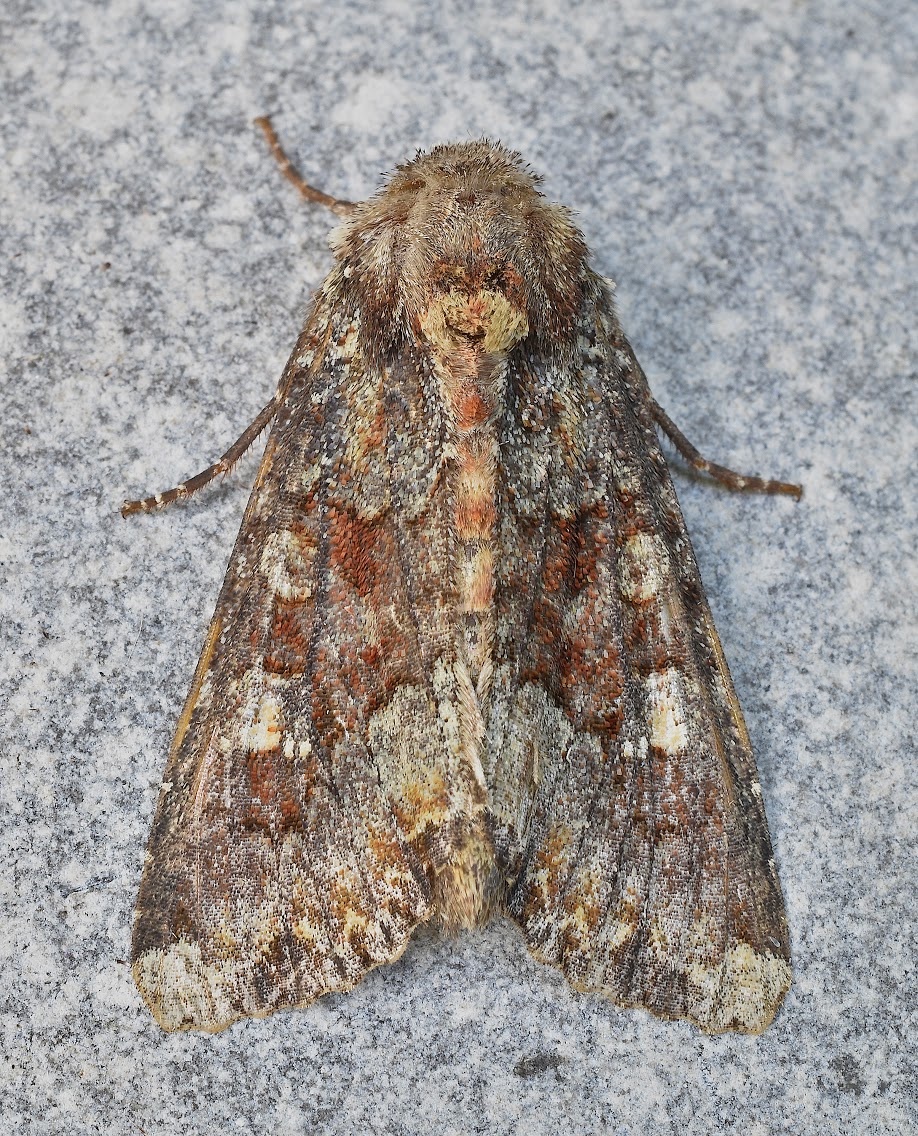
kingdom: Animalia
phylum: Arthropoda
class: Insecta
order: Lepidoptera
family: Noctuidae
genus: Apamea
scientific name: Apamea amputatrix
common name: Yellow-headed cutworm moth
